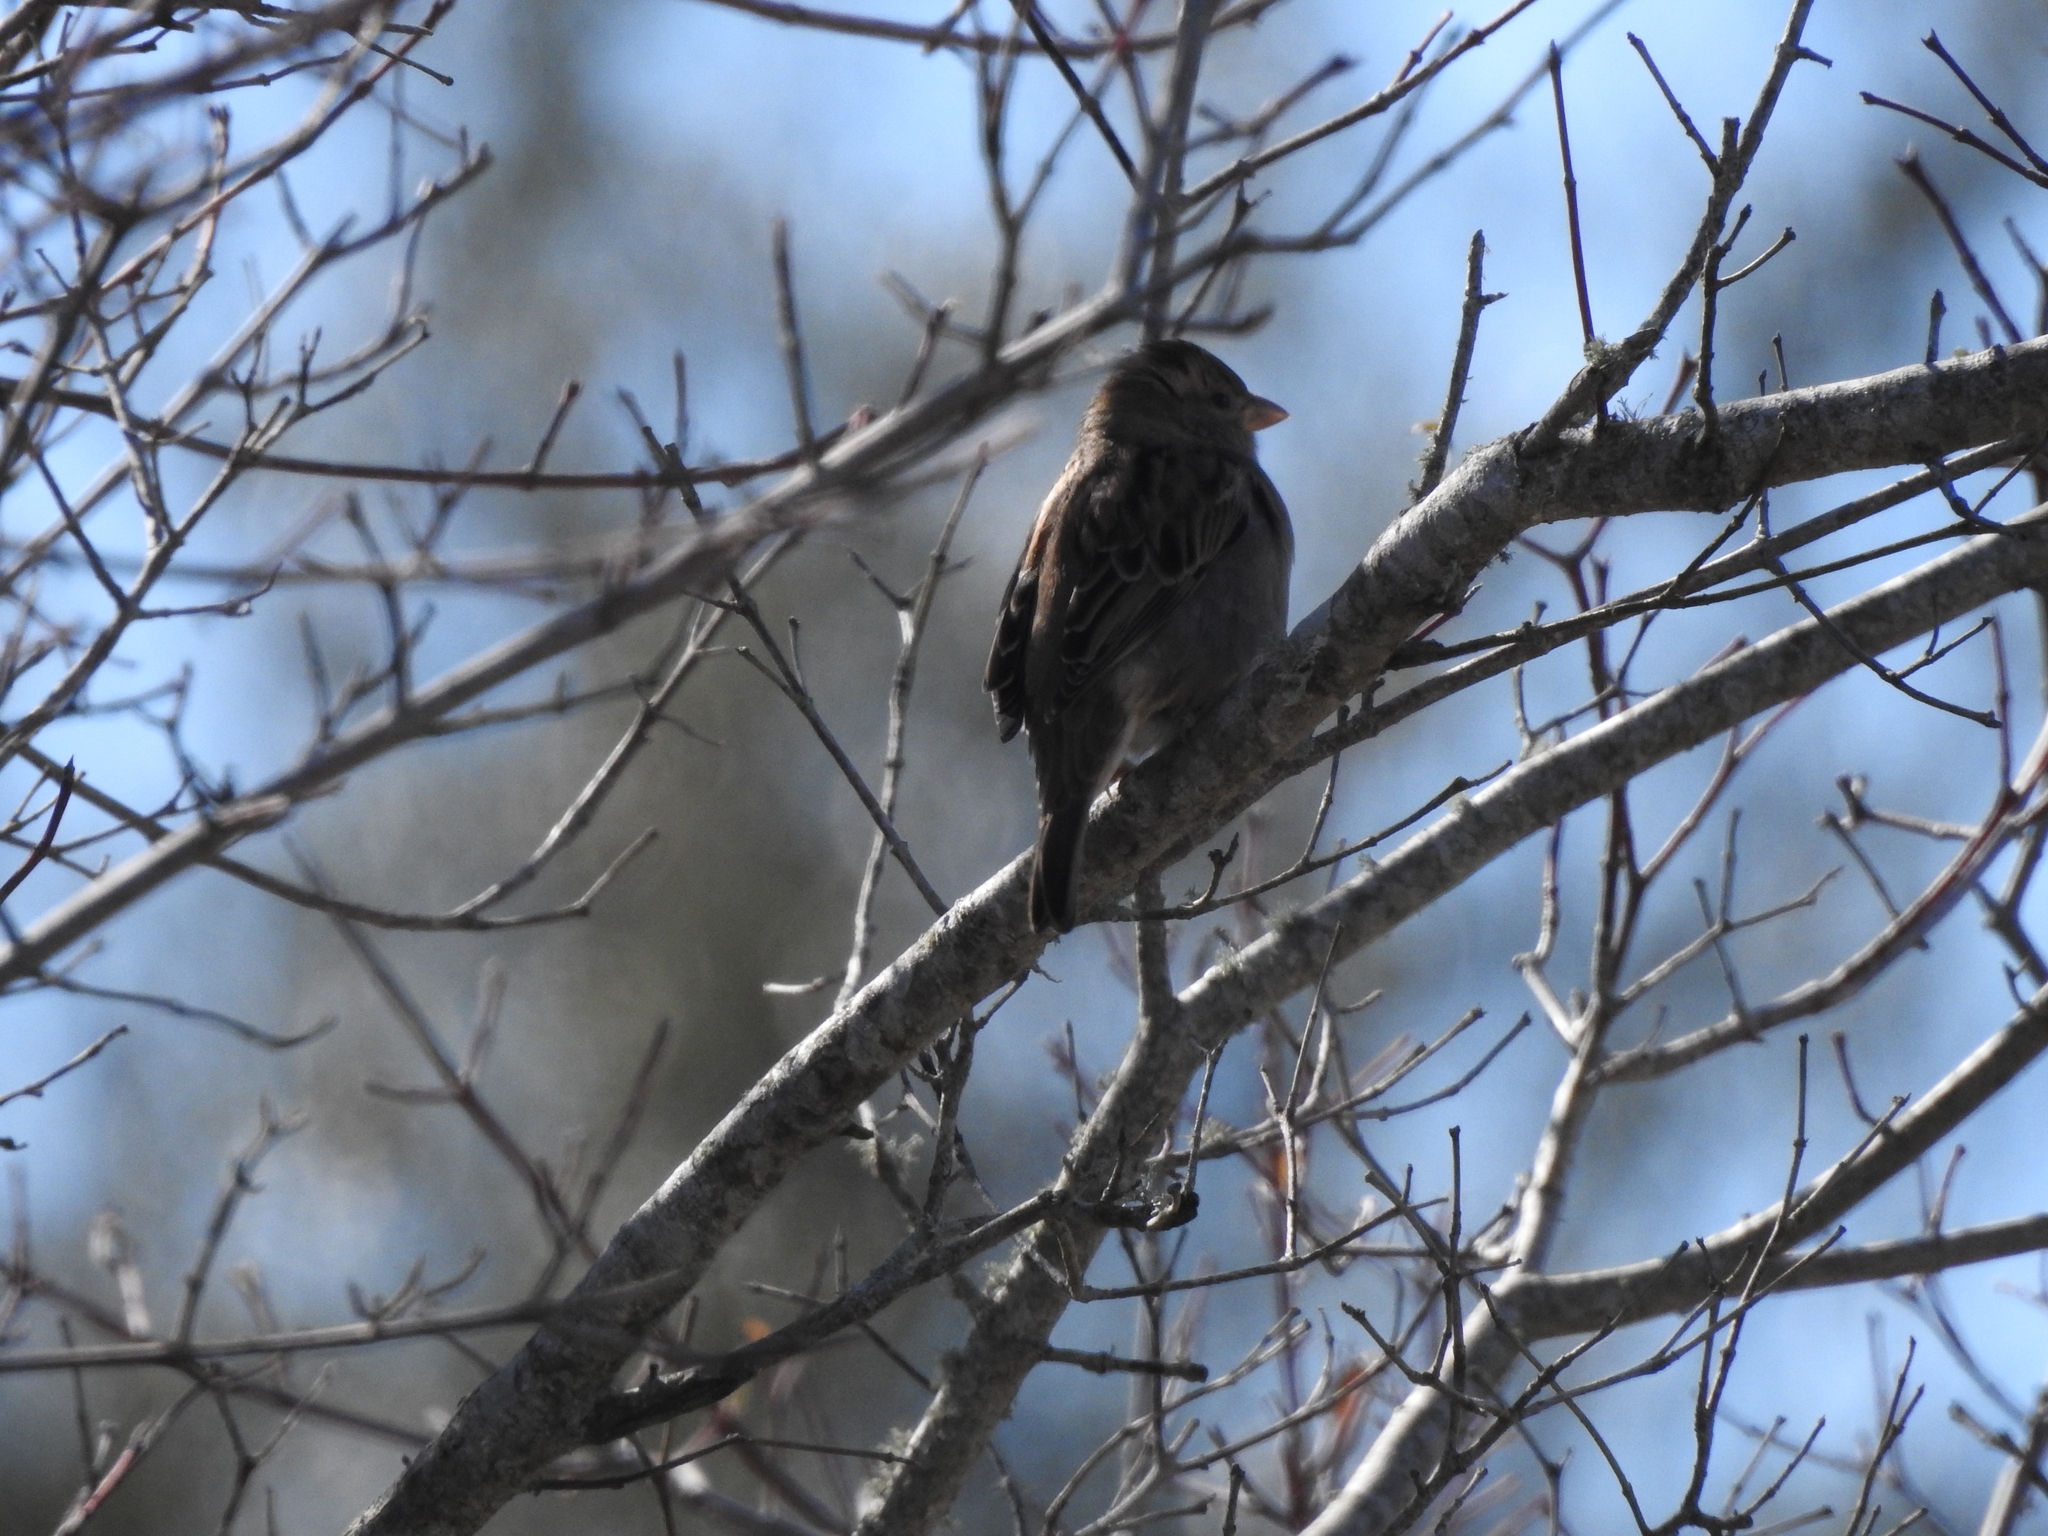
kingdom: Animalia
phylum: Chordata
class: Aves
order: Passeriformes
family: Passeridae
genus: Passer
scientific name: Passer domesticus
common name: House sparrow
